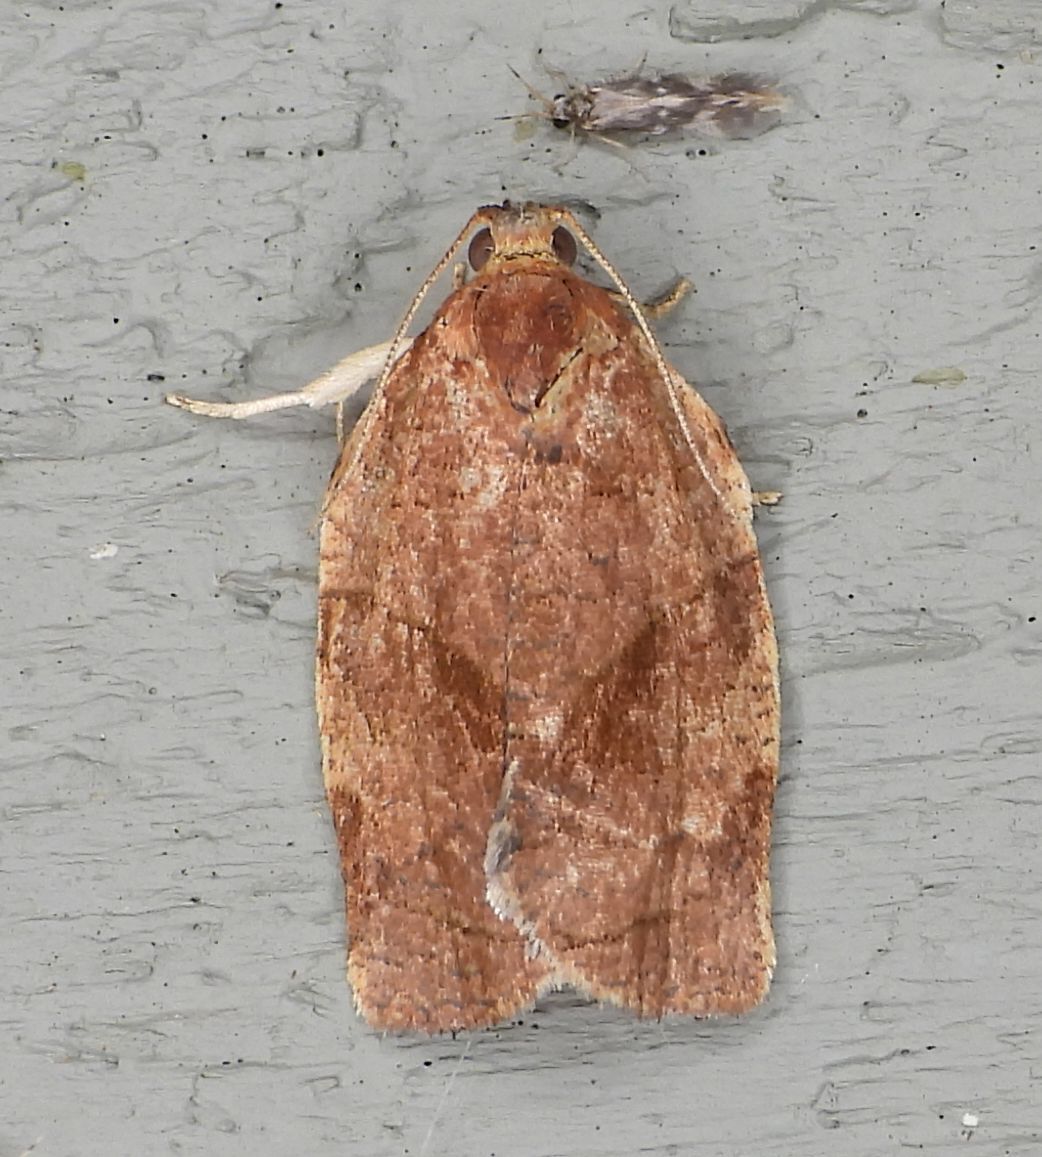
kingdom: Animalia
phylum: Arthropoda
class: Insecta
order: Lepidoptera
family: Tortricidae
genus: Choristoneura
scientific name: Choristoneura rosaceana
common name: Oblique-banded leafroller moth
